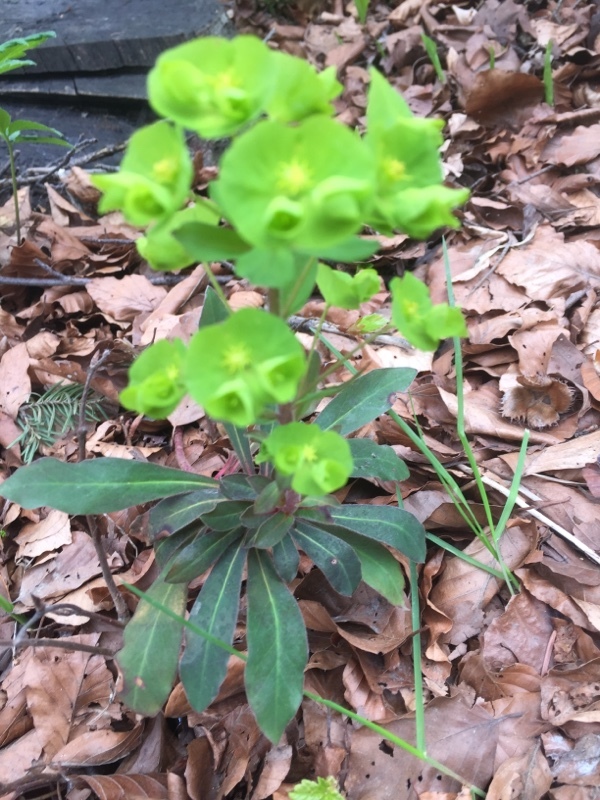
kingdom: Plantae
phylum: Tracheophyta
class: Magnoliopsida
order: Malpighiales
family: Euphorbiaceae
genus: Euphorbia
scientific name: Euphorbia amygdaloides
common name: Wood spurge
